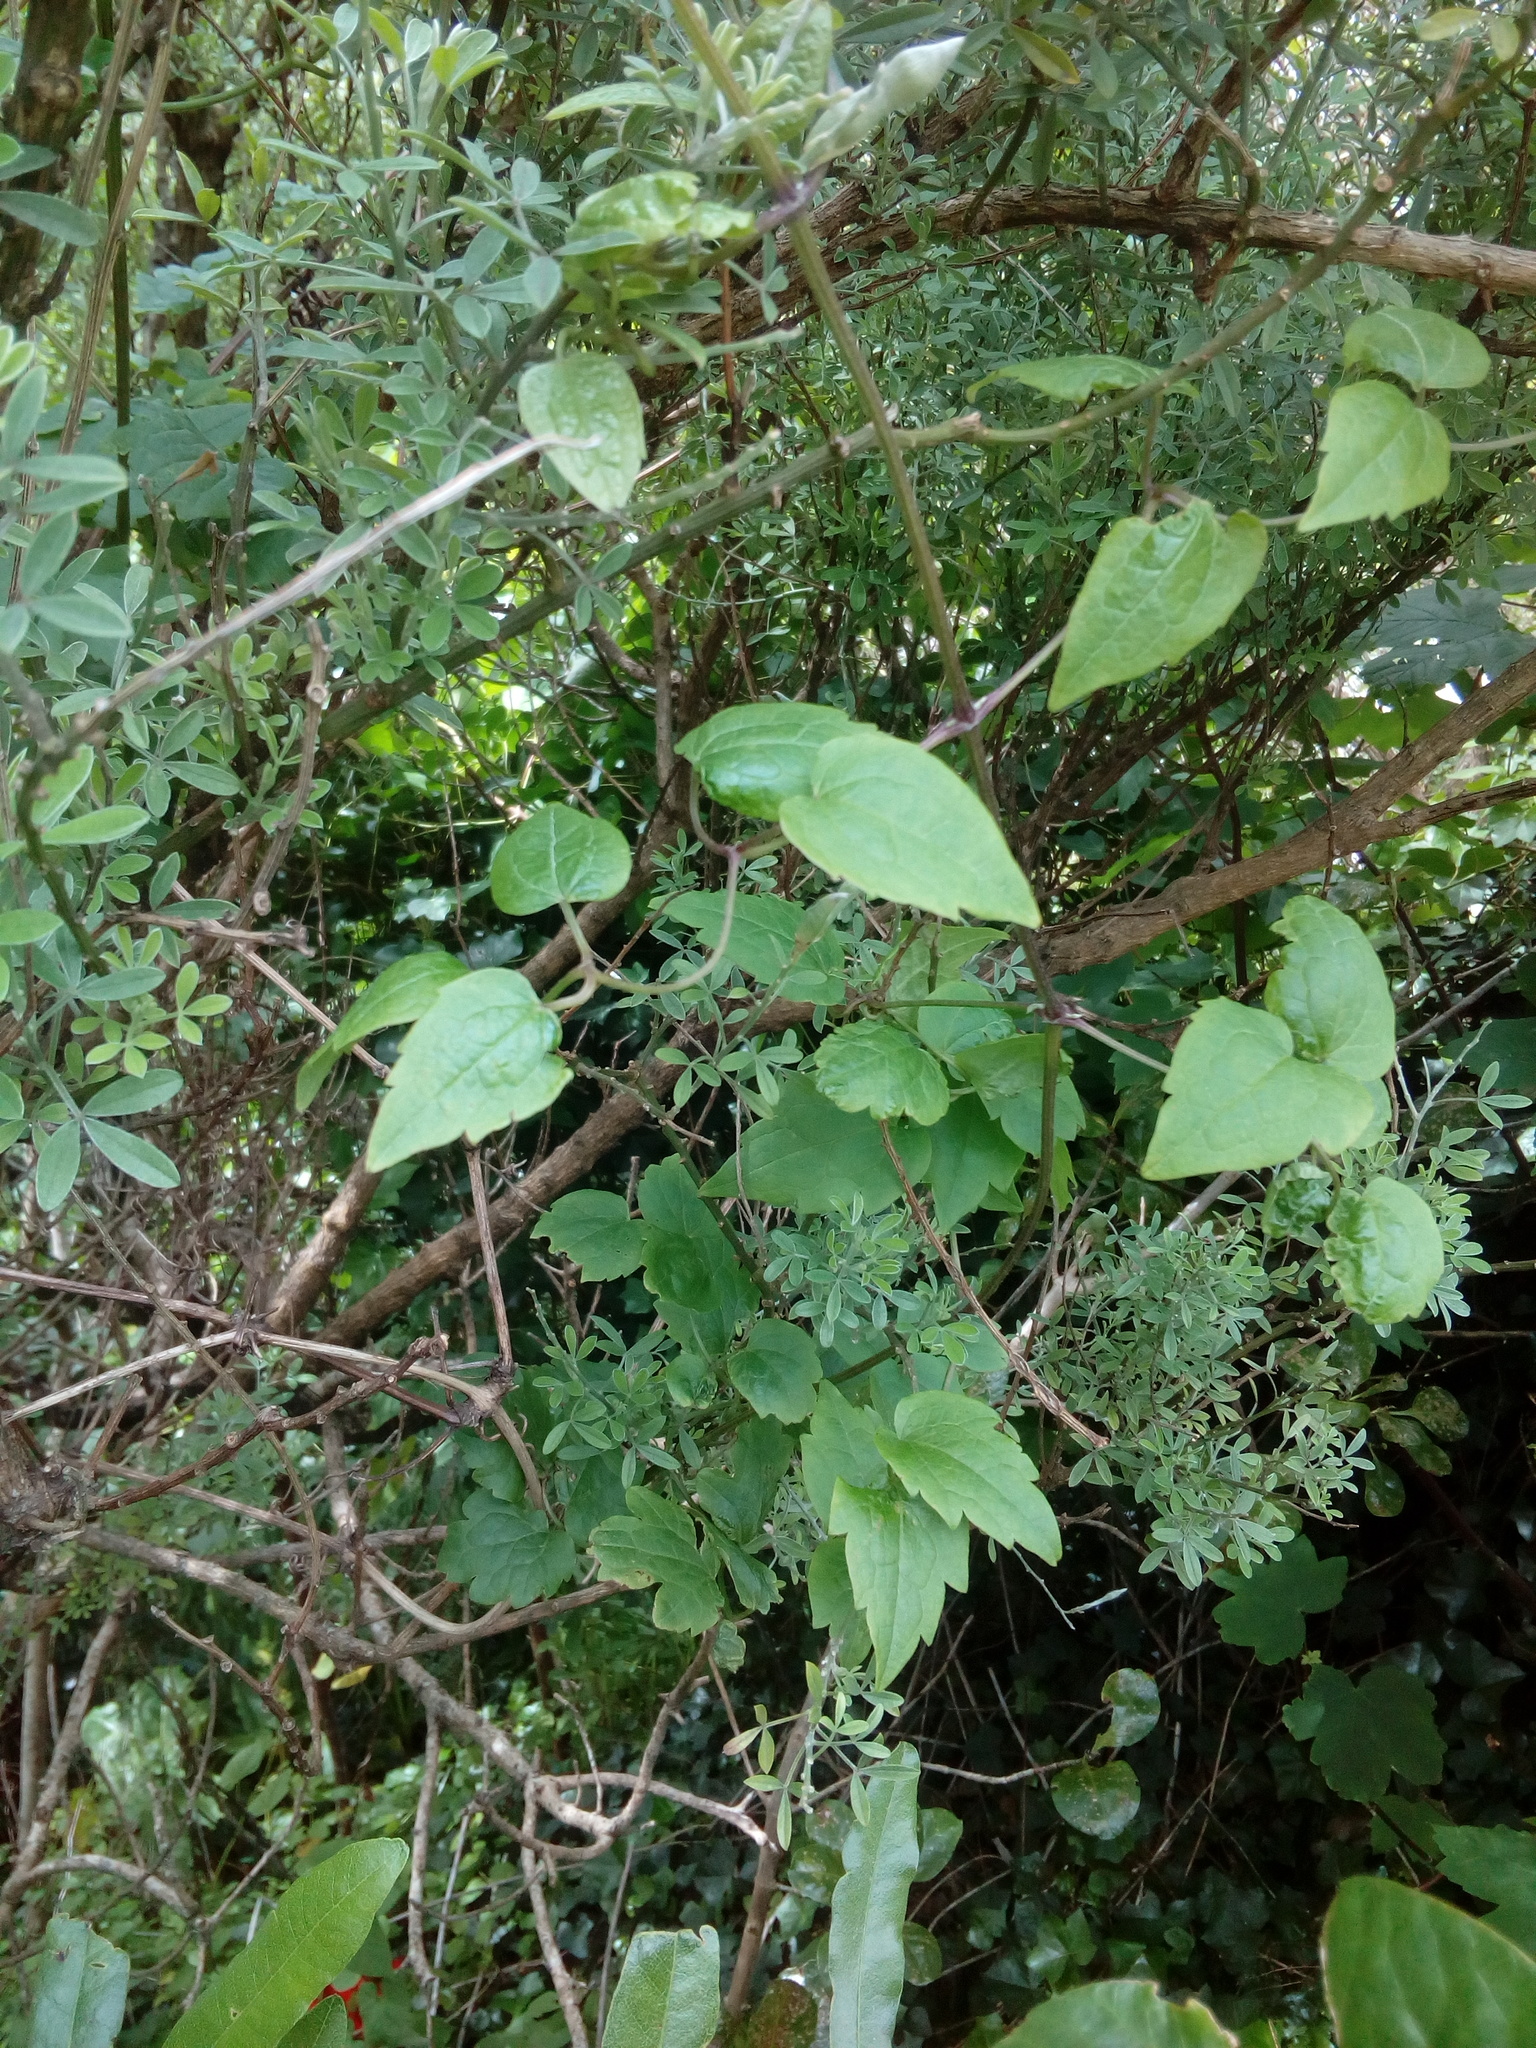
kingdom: Plantae
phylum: Tracheophyta
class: Magnoliopsida
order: Ranunculales
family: Ranunculaceae
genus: Clematis
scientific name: Clematis vitalba
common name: Evergreen clematis
